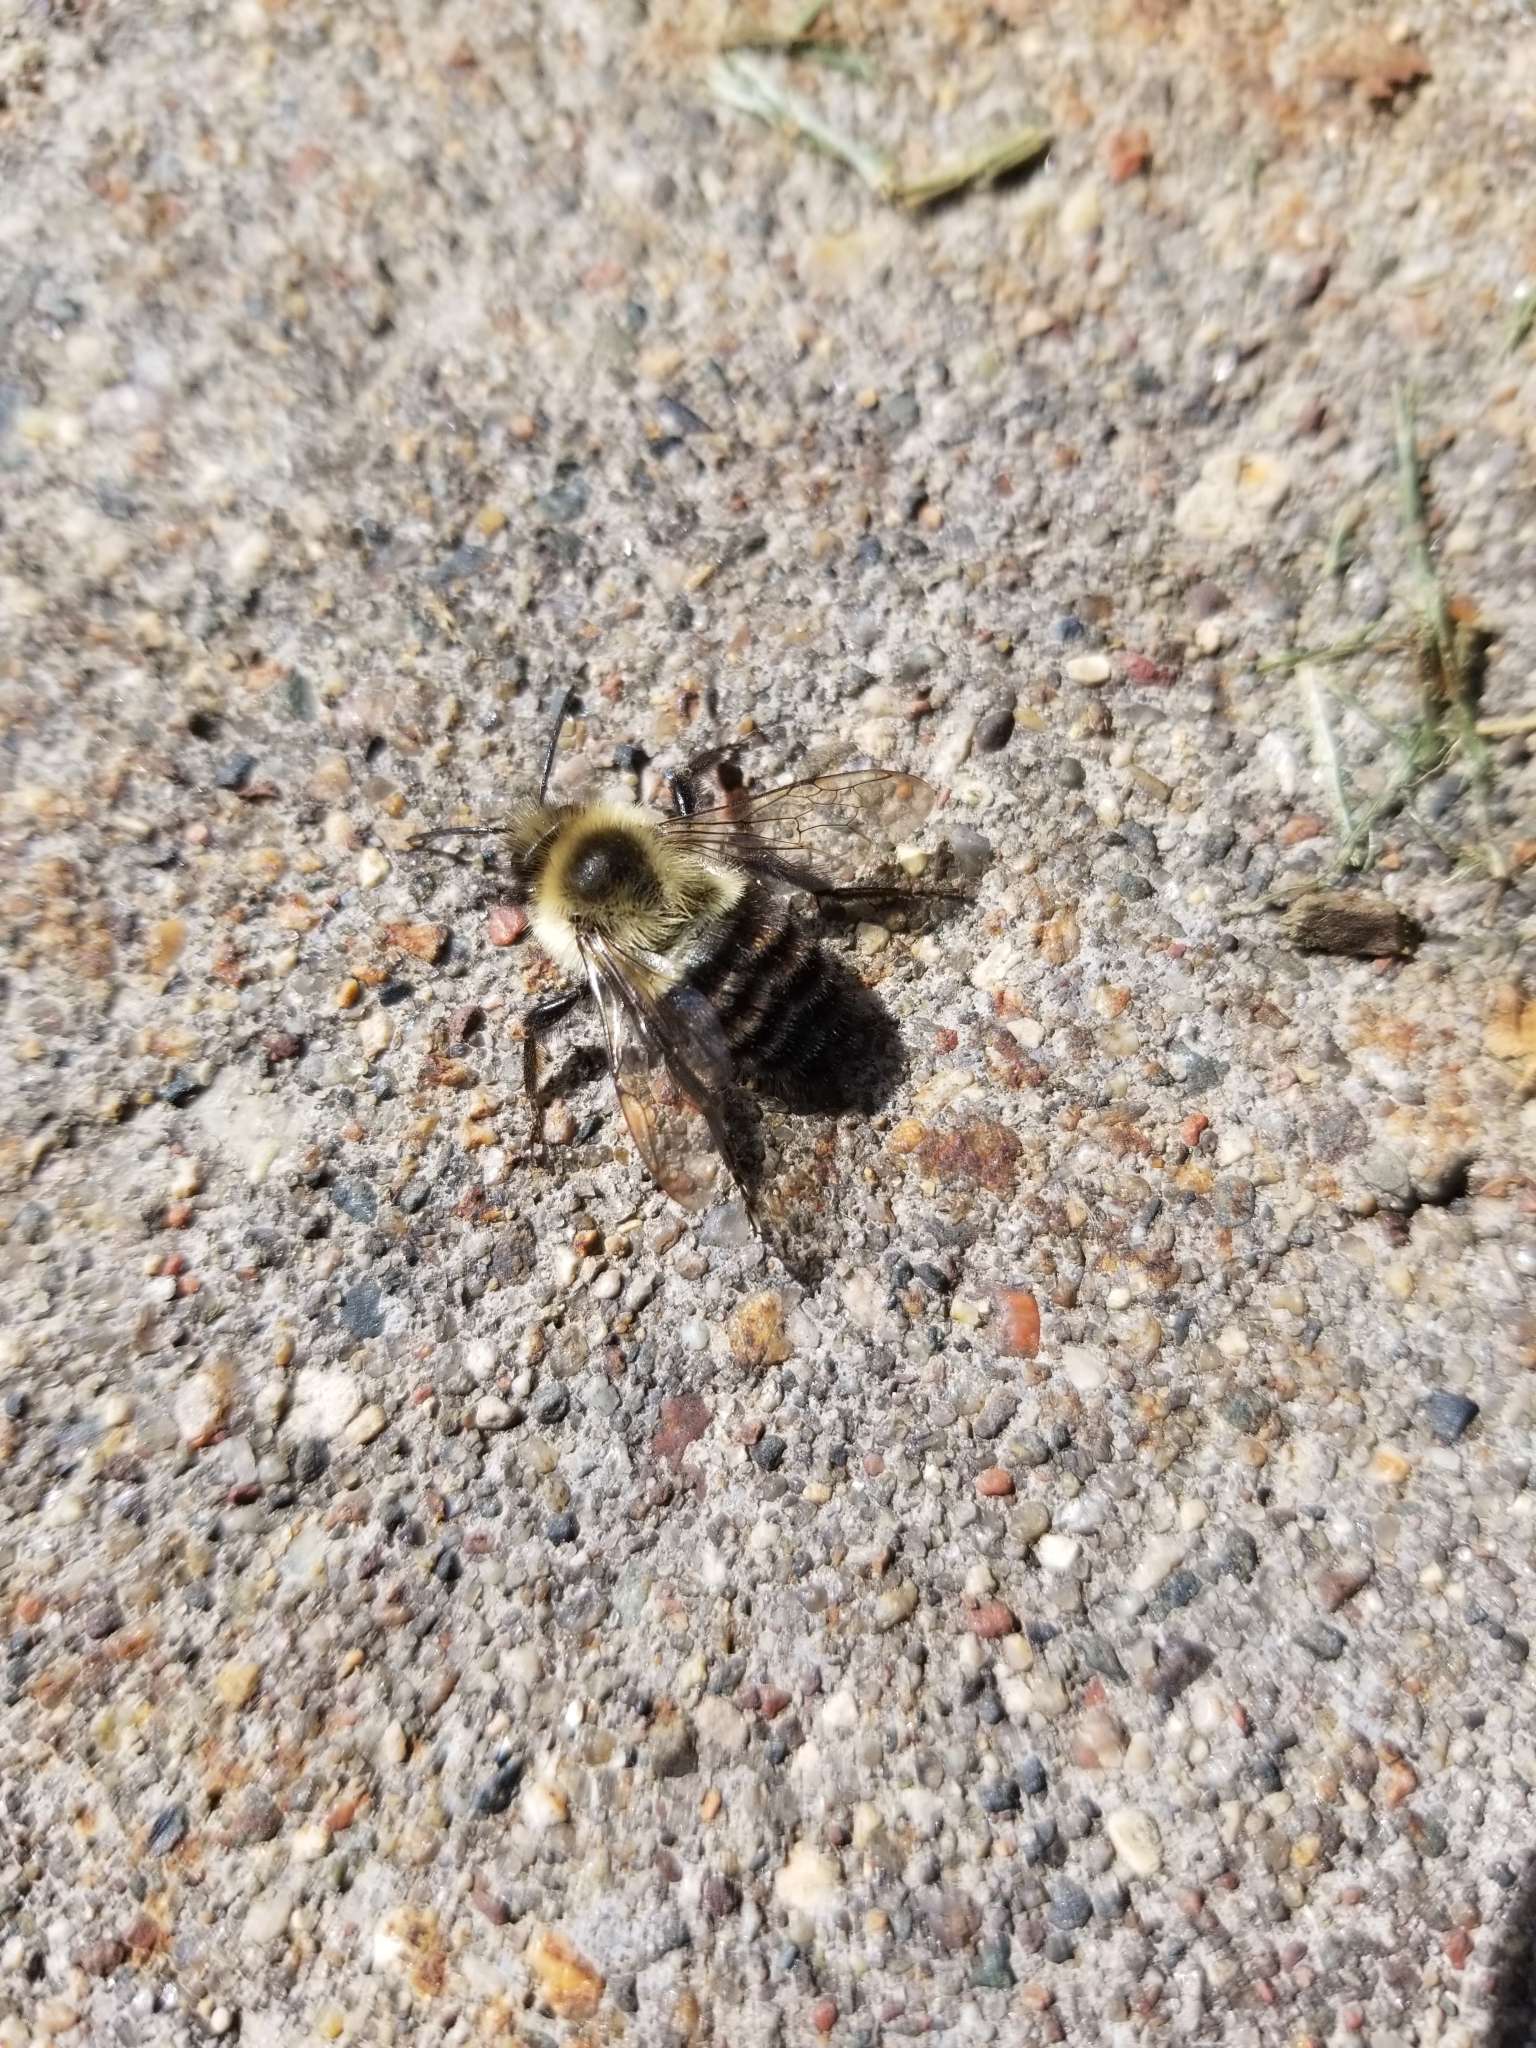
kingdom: Animalia
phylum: Arthropoda
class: Insecta
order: Hymenoptera
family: Apidae
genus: Bombus
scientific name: Bombus impatiens
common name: Common eastern bumble bee
